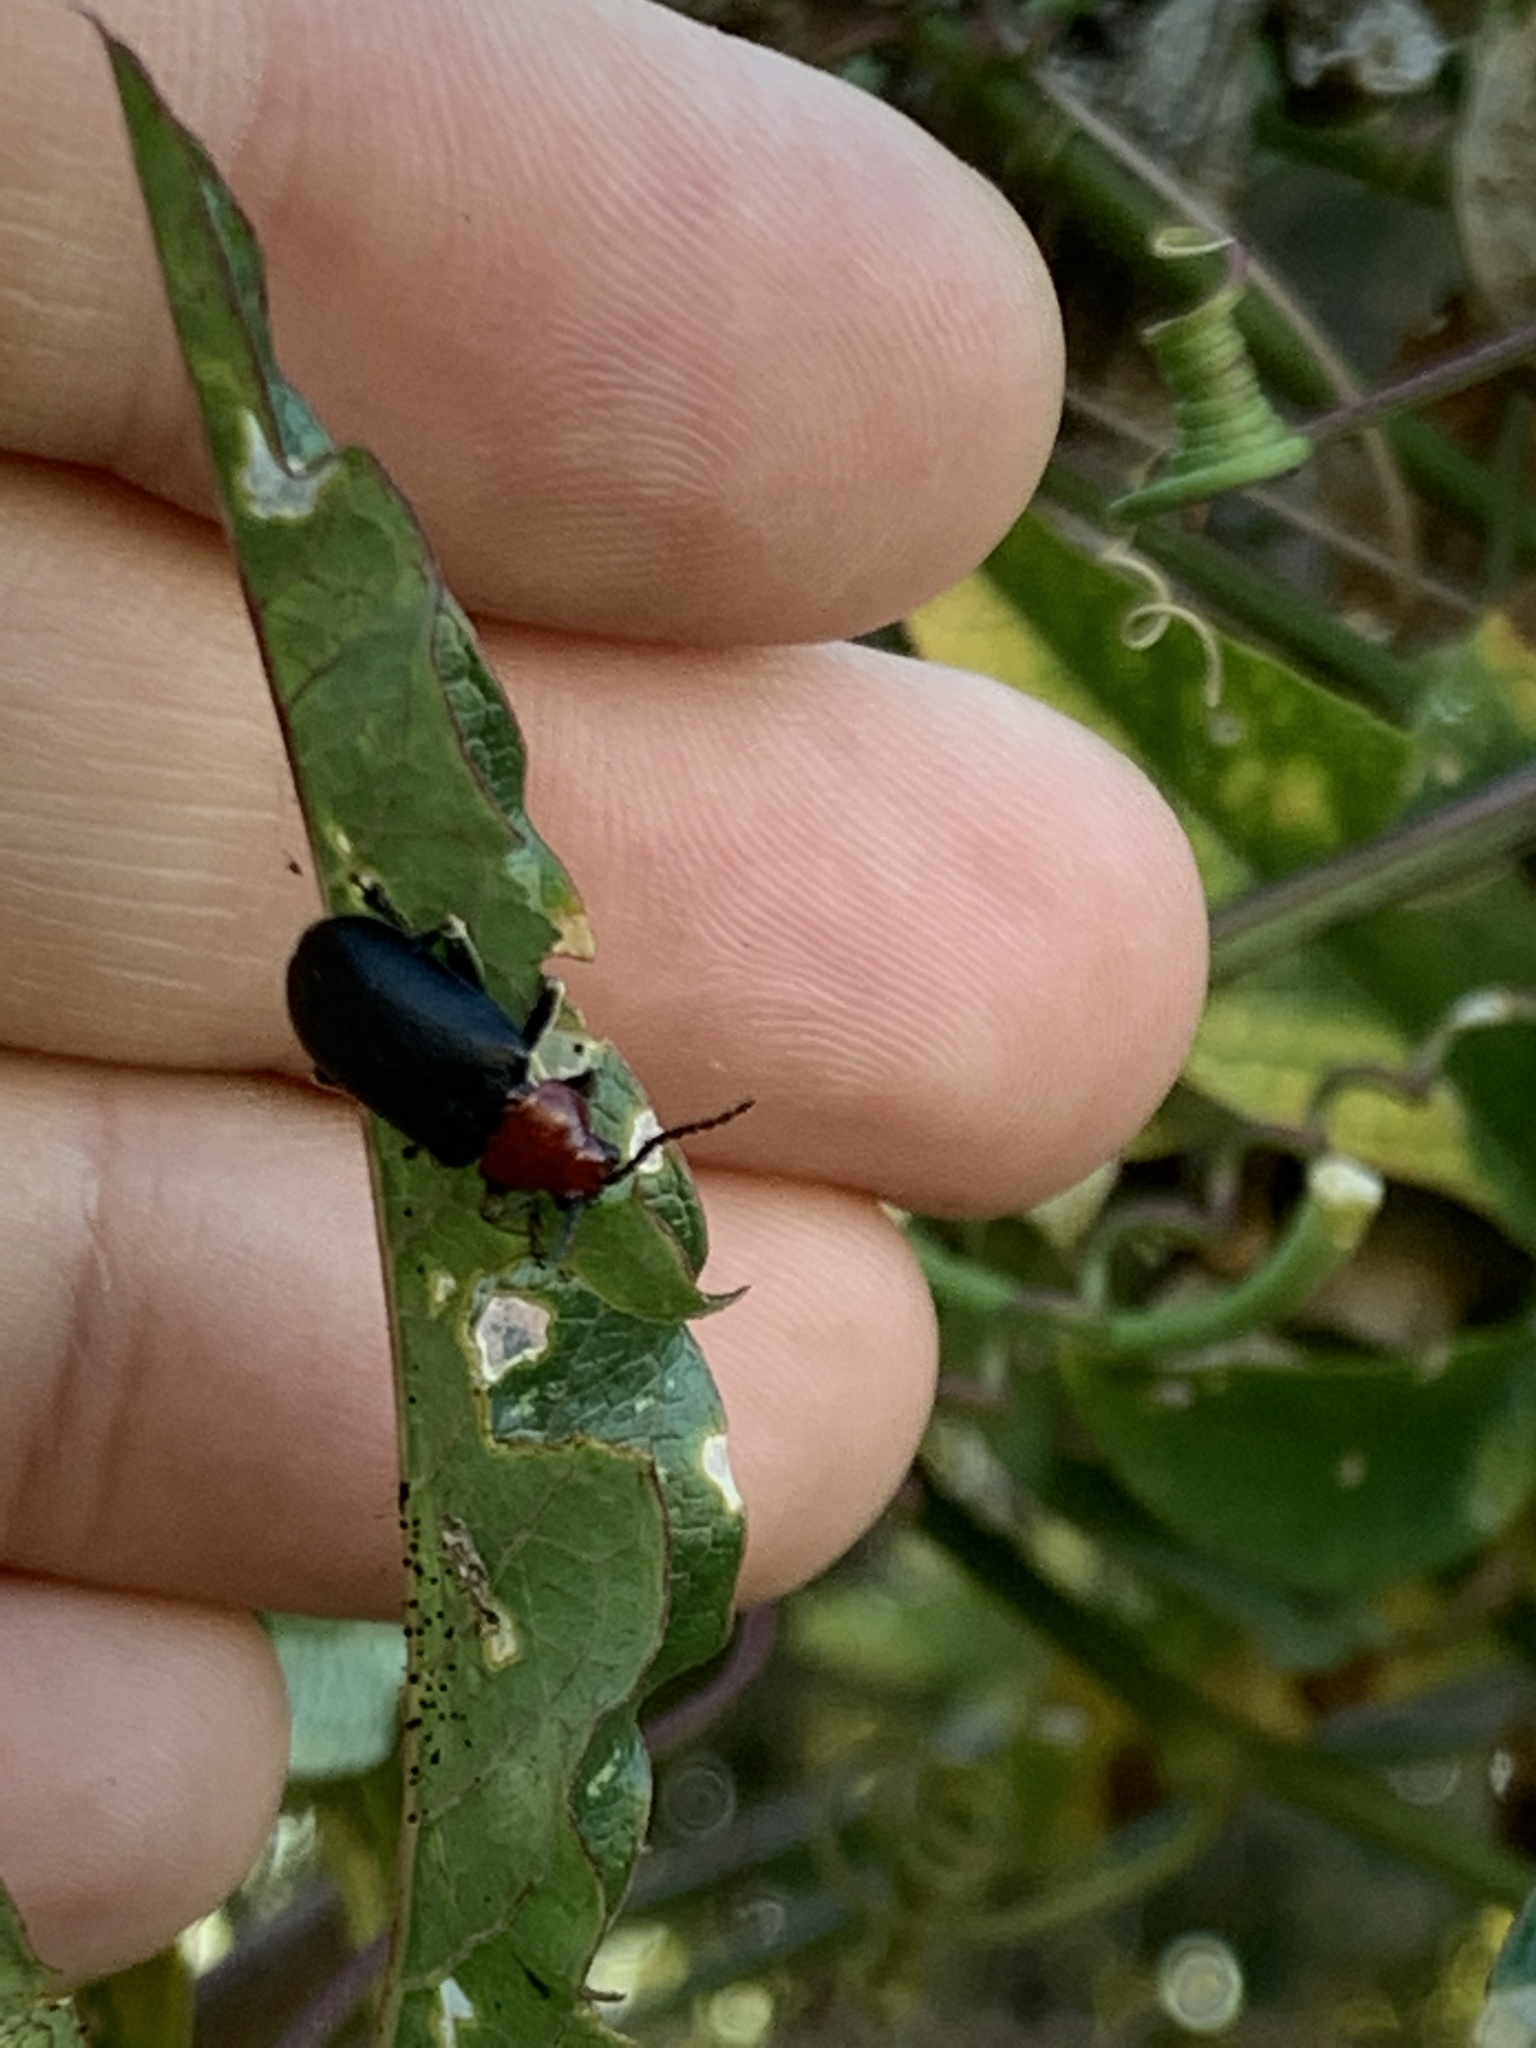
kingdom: Animalia
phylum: Arthropoda
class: Insecta
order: Coleoptera
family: Chrysomelidae
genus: Cacoscelis
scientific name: Cacoscelis
